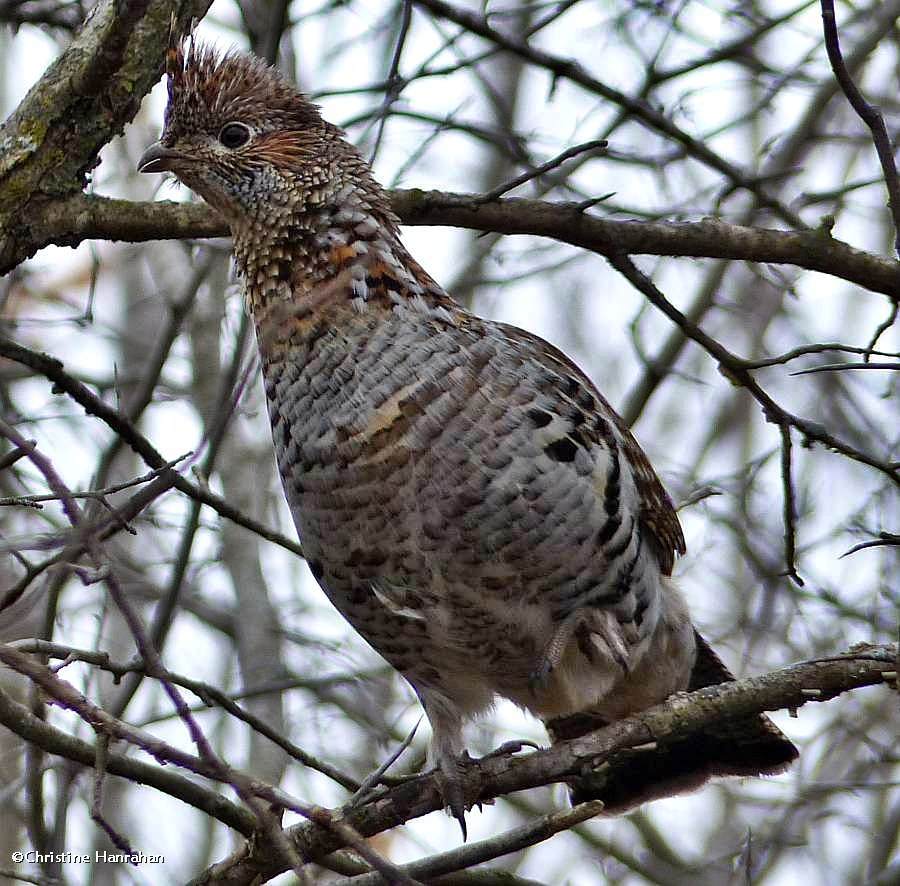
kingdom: Animalia
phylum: Chordata
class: Aves
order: Galliformes
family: Phasianidae
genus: Bonasa
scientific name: Bonasa umbellus
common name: Ruffed grouse
